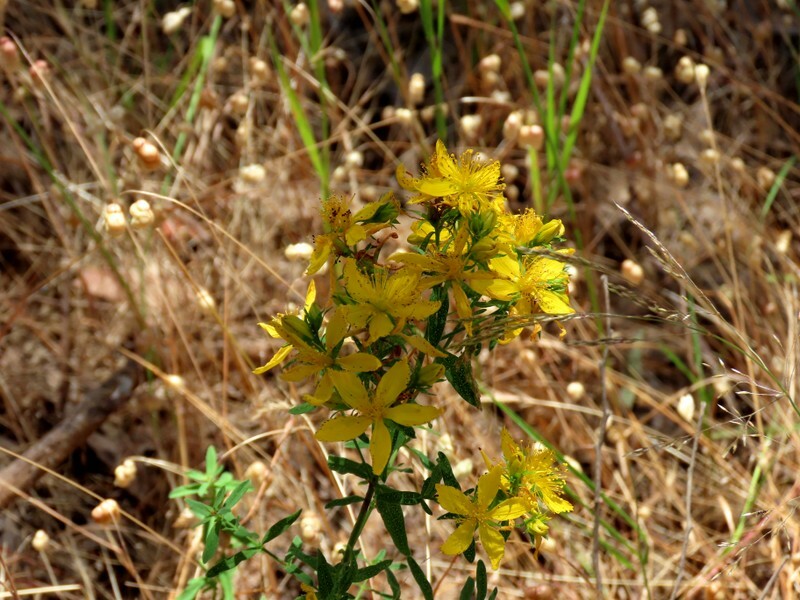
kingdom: Plantae
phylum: Tracheophyta
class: Magnoliopsida
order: Malpighiales
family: Hypericaceae
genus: Hypericum
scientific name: Hypericum perforatum
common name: Common st. johnswort
